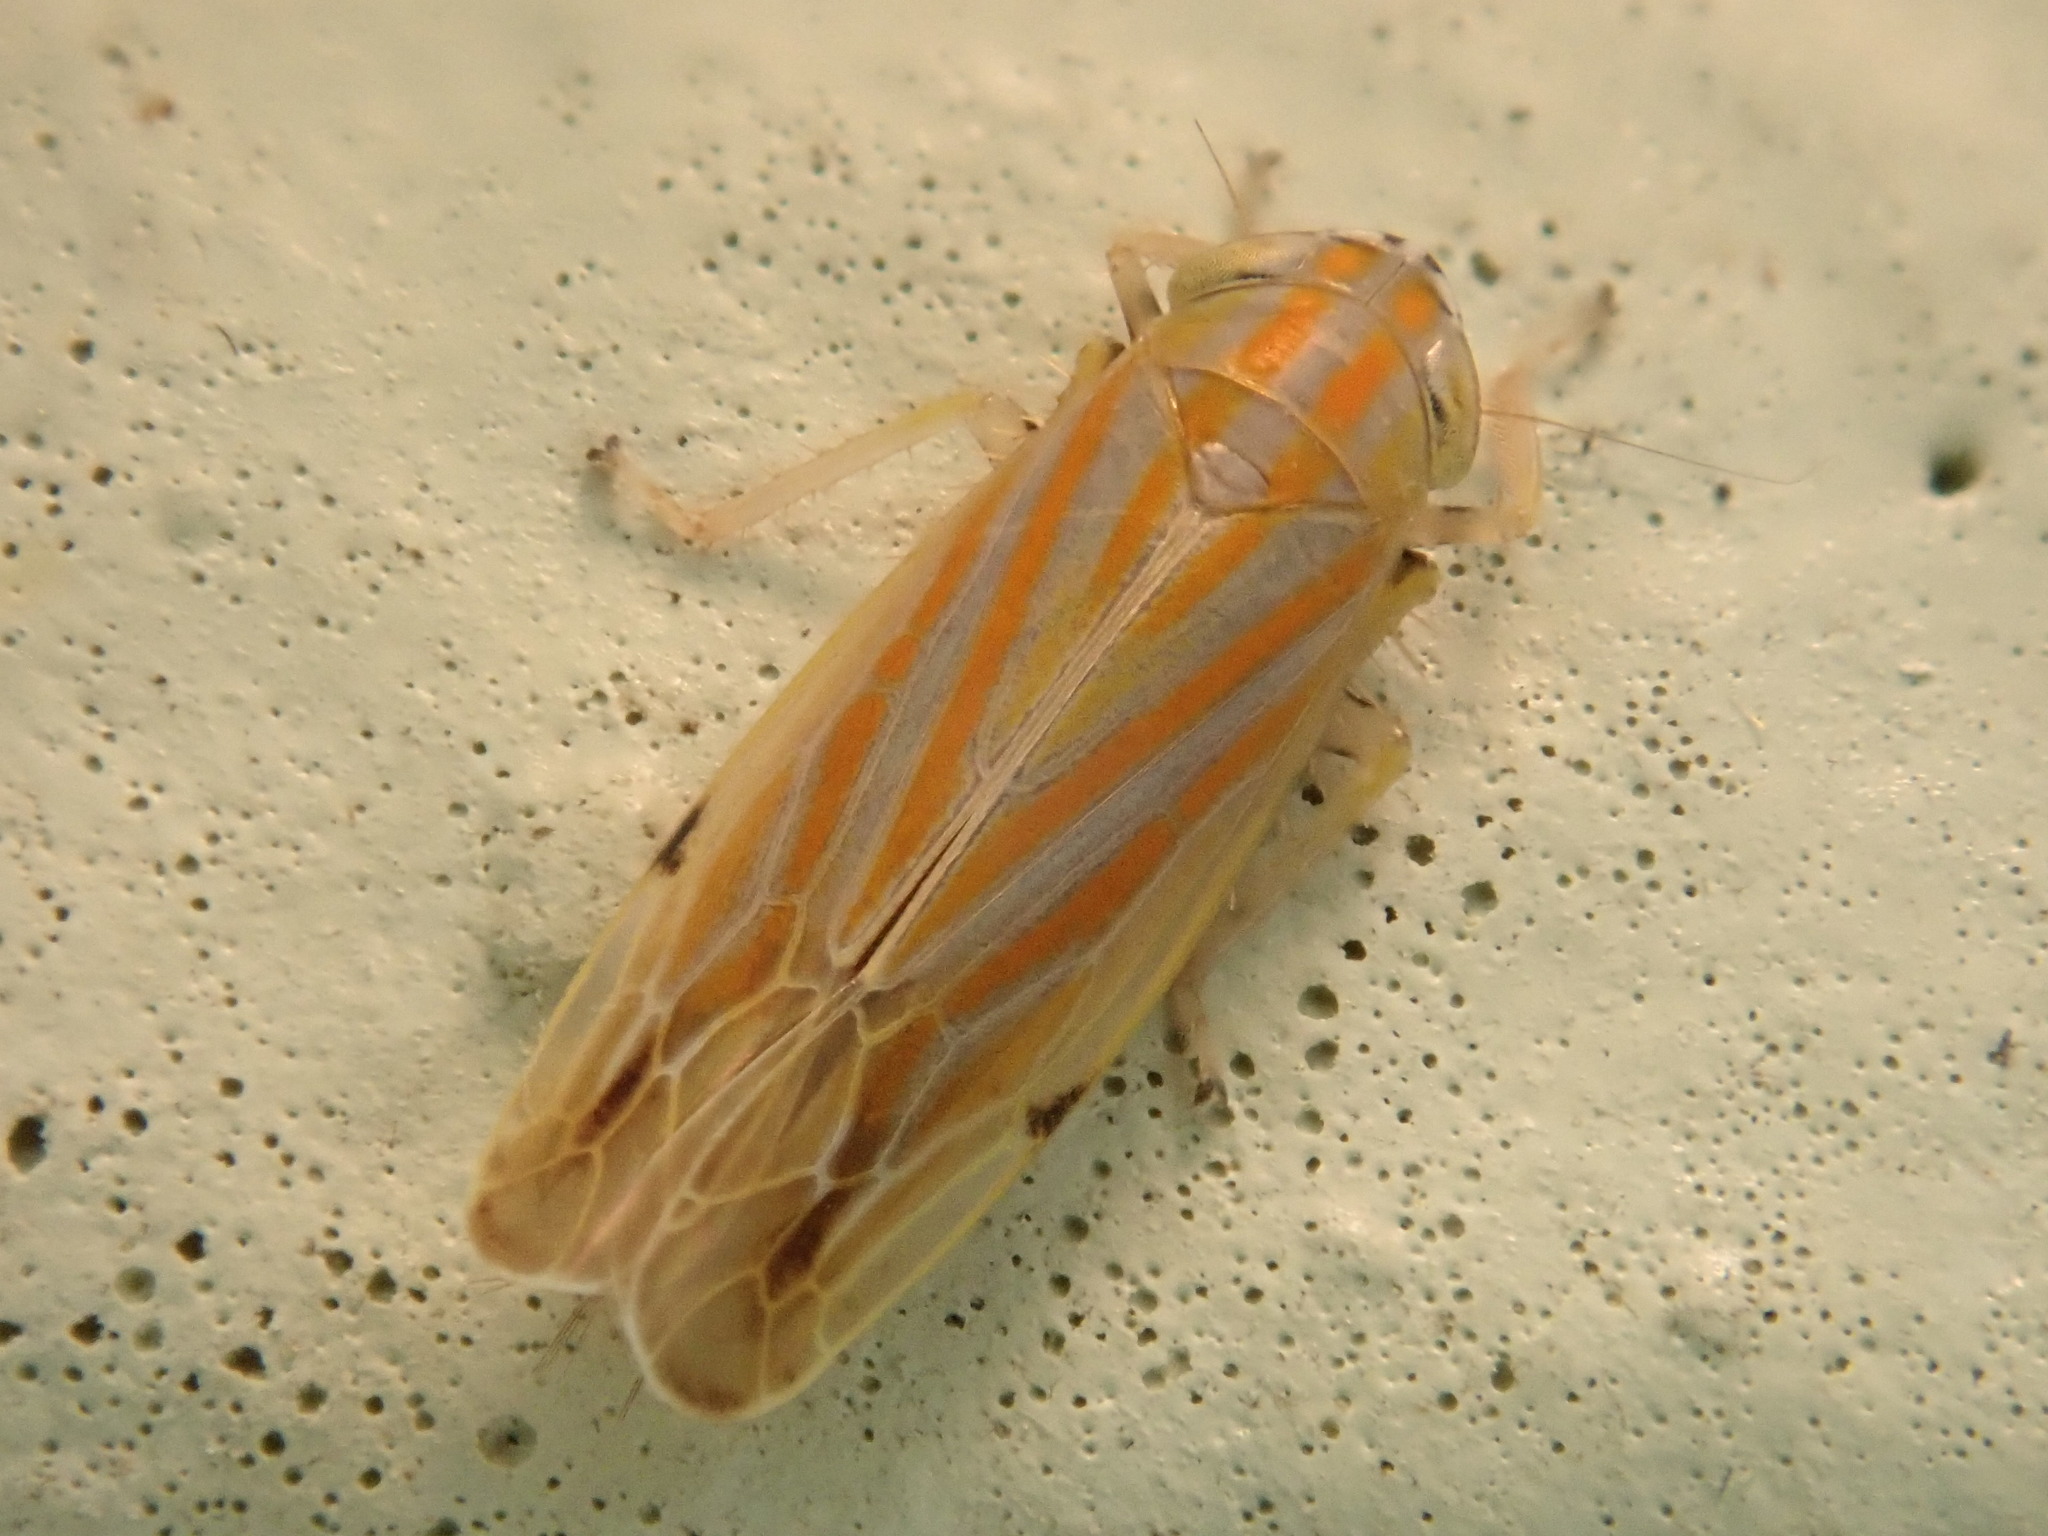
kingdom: Animalia
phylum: Arthropoda
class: Insecta
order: Hemiptera
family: Cicadellidae
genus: Deltanus
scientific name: Deltanus texanus
